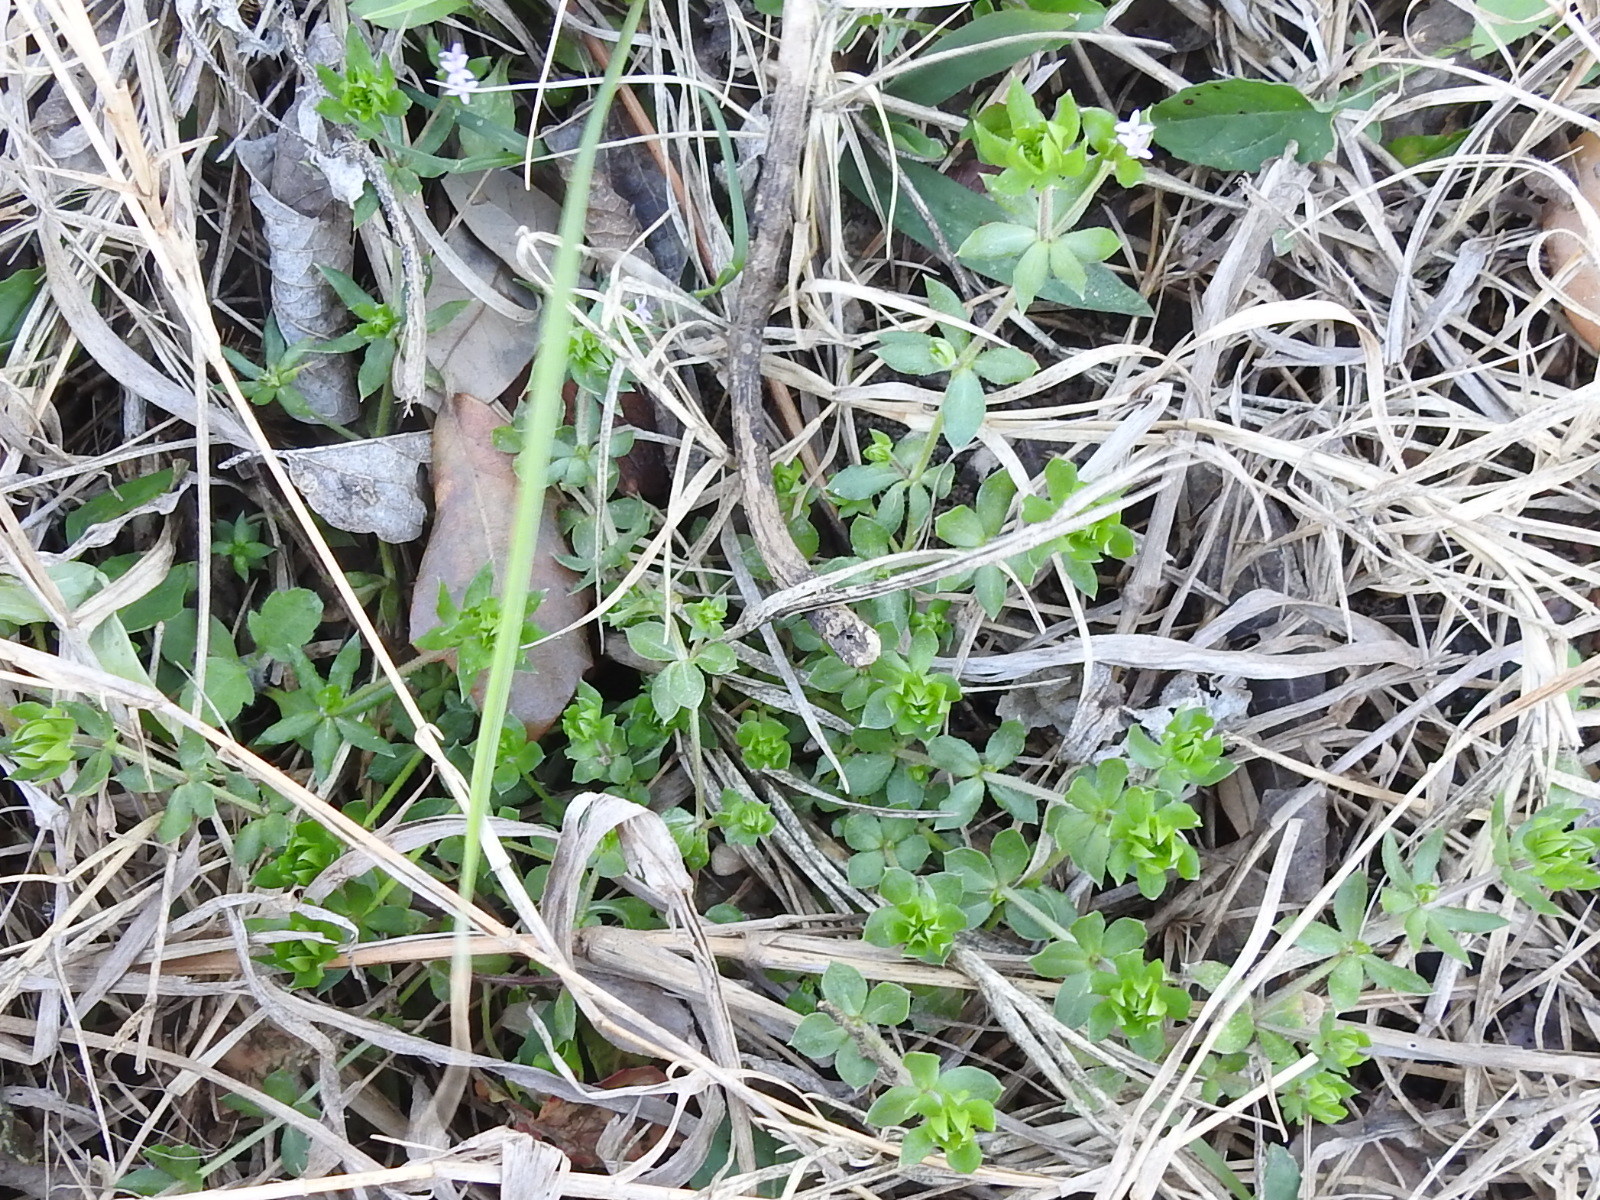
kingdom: Plantae
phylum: Tracheophyta
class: Magnoliopsida
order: Gentianales
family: Rubiaceae
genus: Sherardia
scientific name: Sherardia arvensis
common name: Field madder
